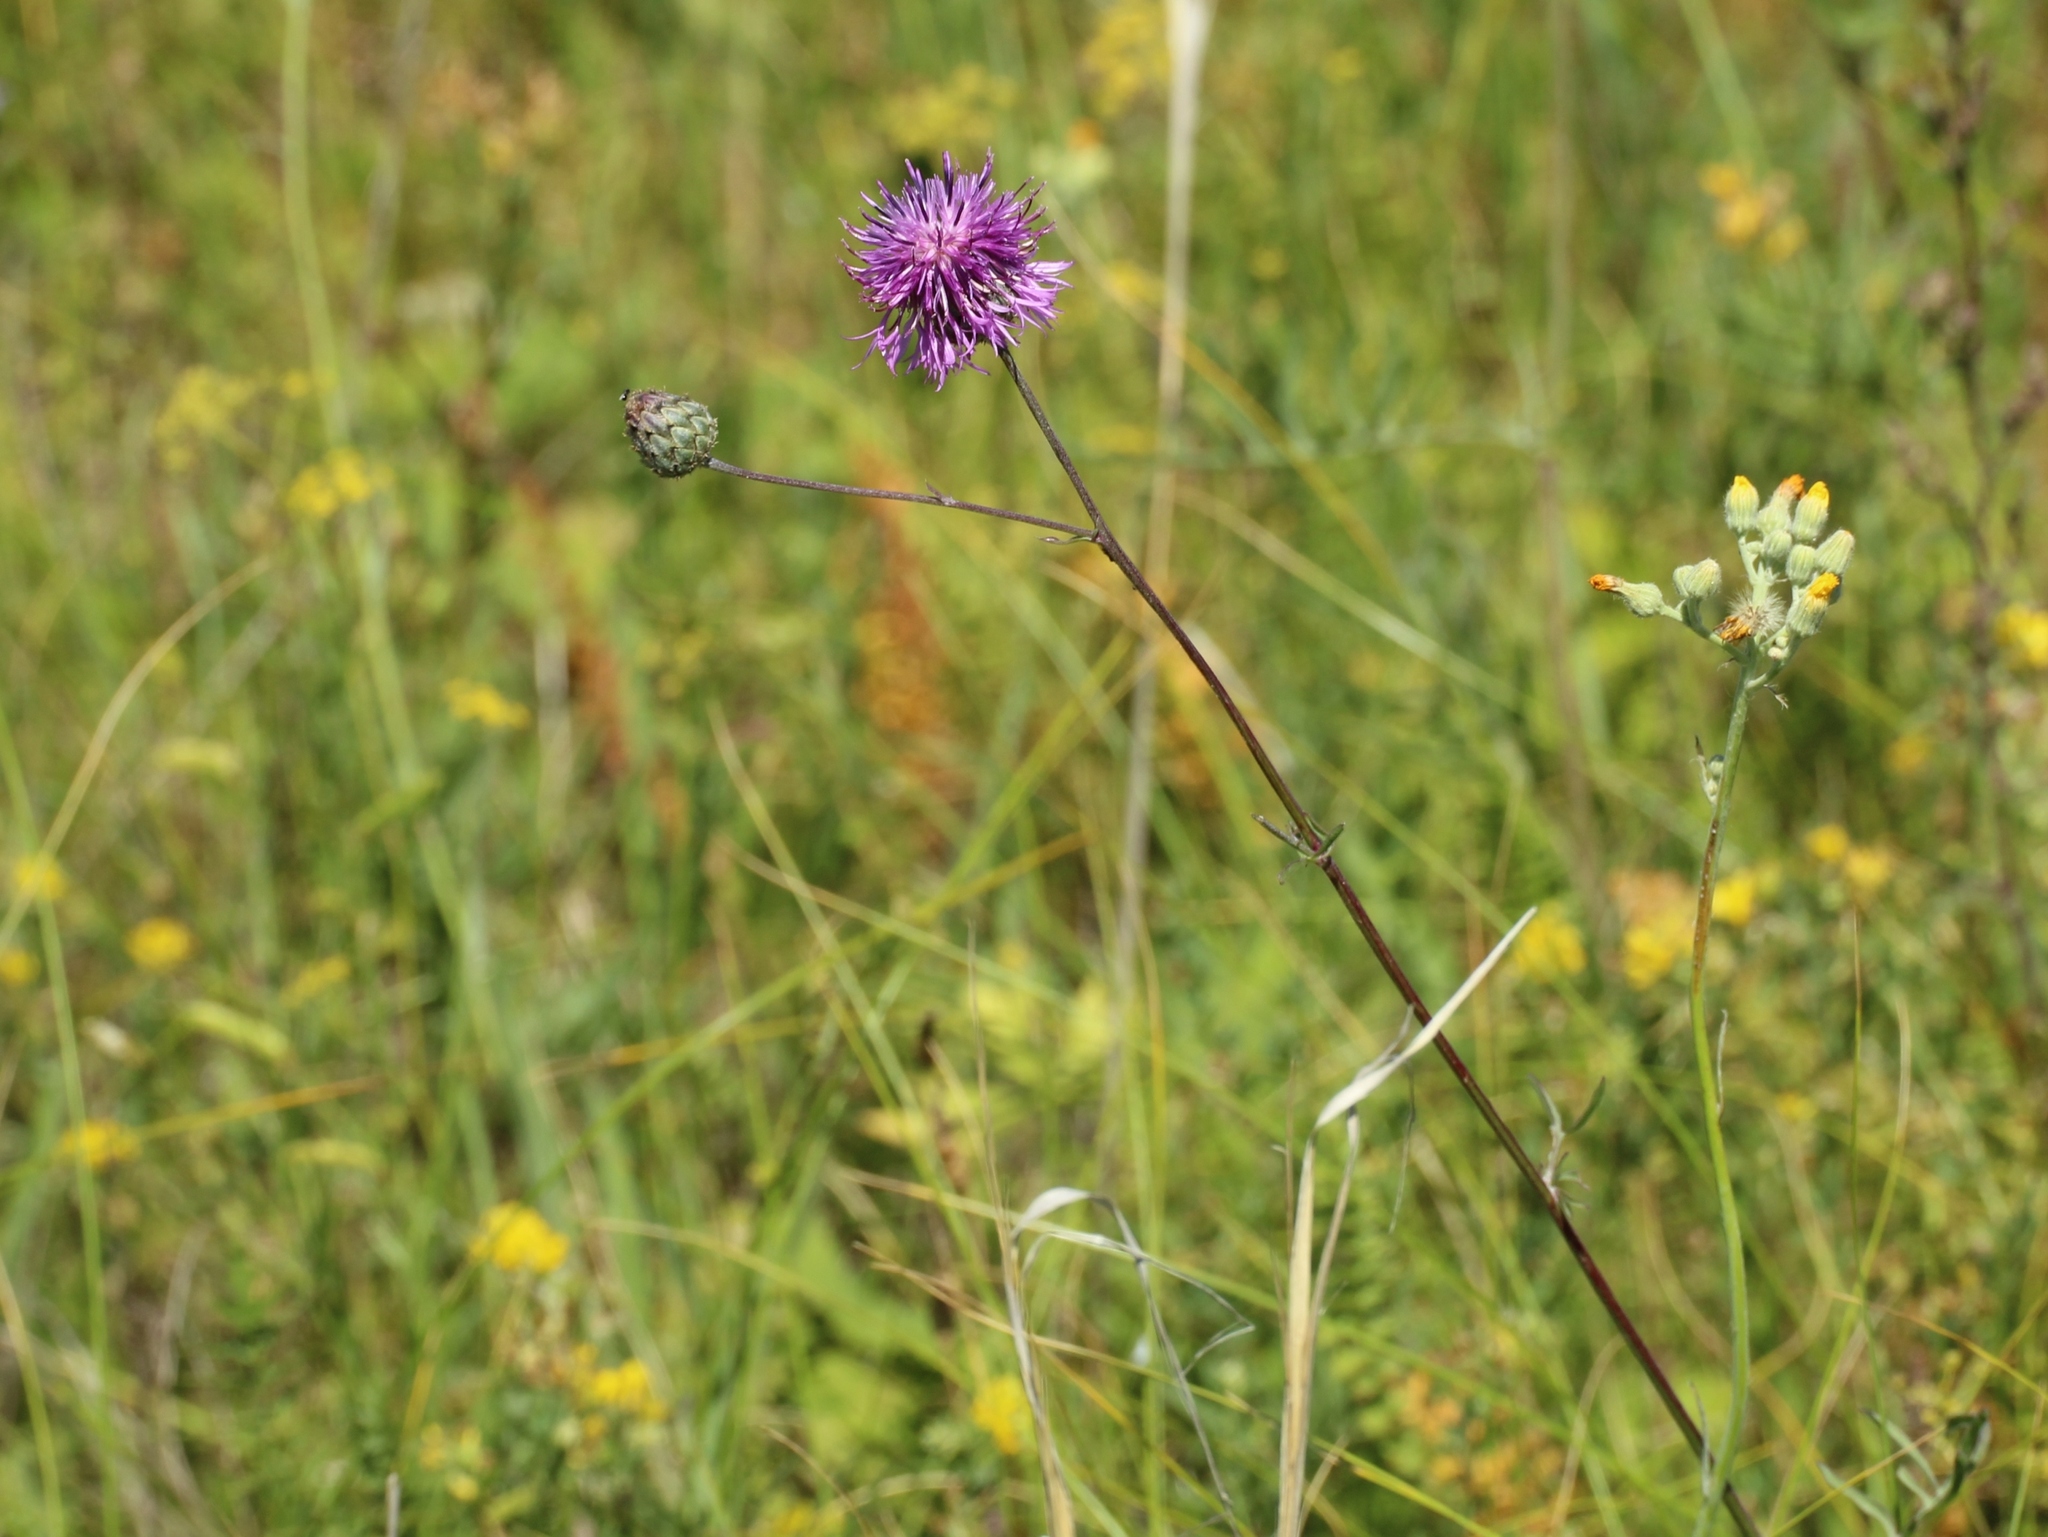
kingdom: Plantae
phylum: Tracheophyta
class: Magnoliopsida
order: Asterales
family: Asteraceae
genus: Centaurea
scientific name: Centaurea scabiosa
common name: Greater knapweed
